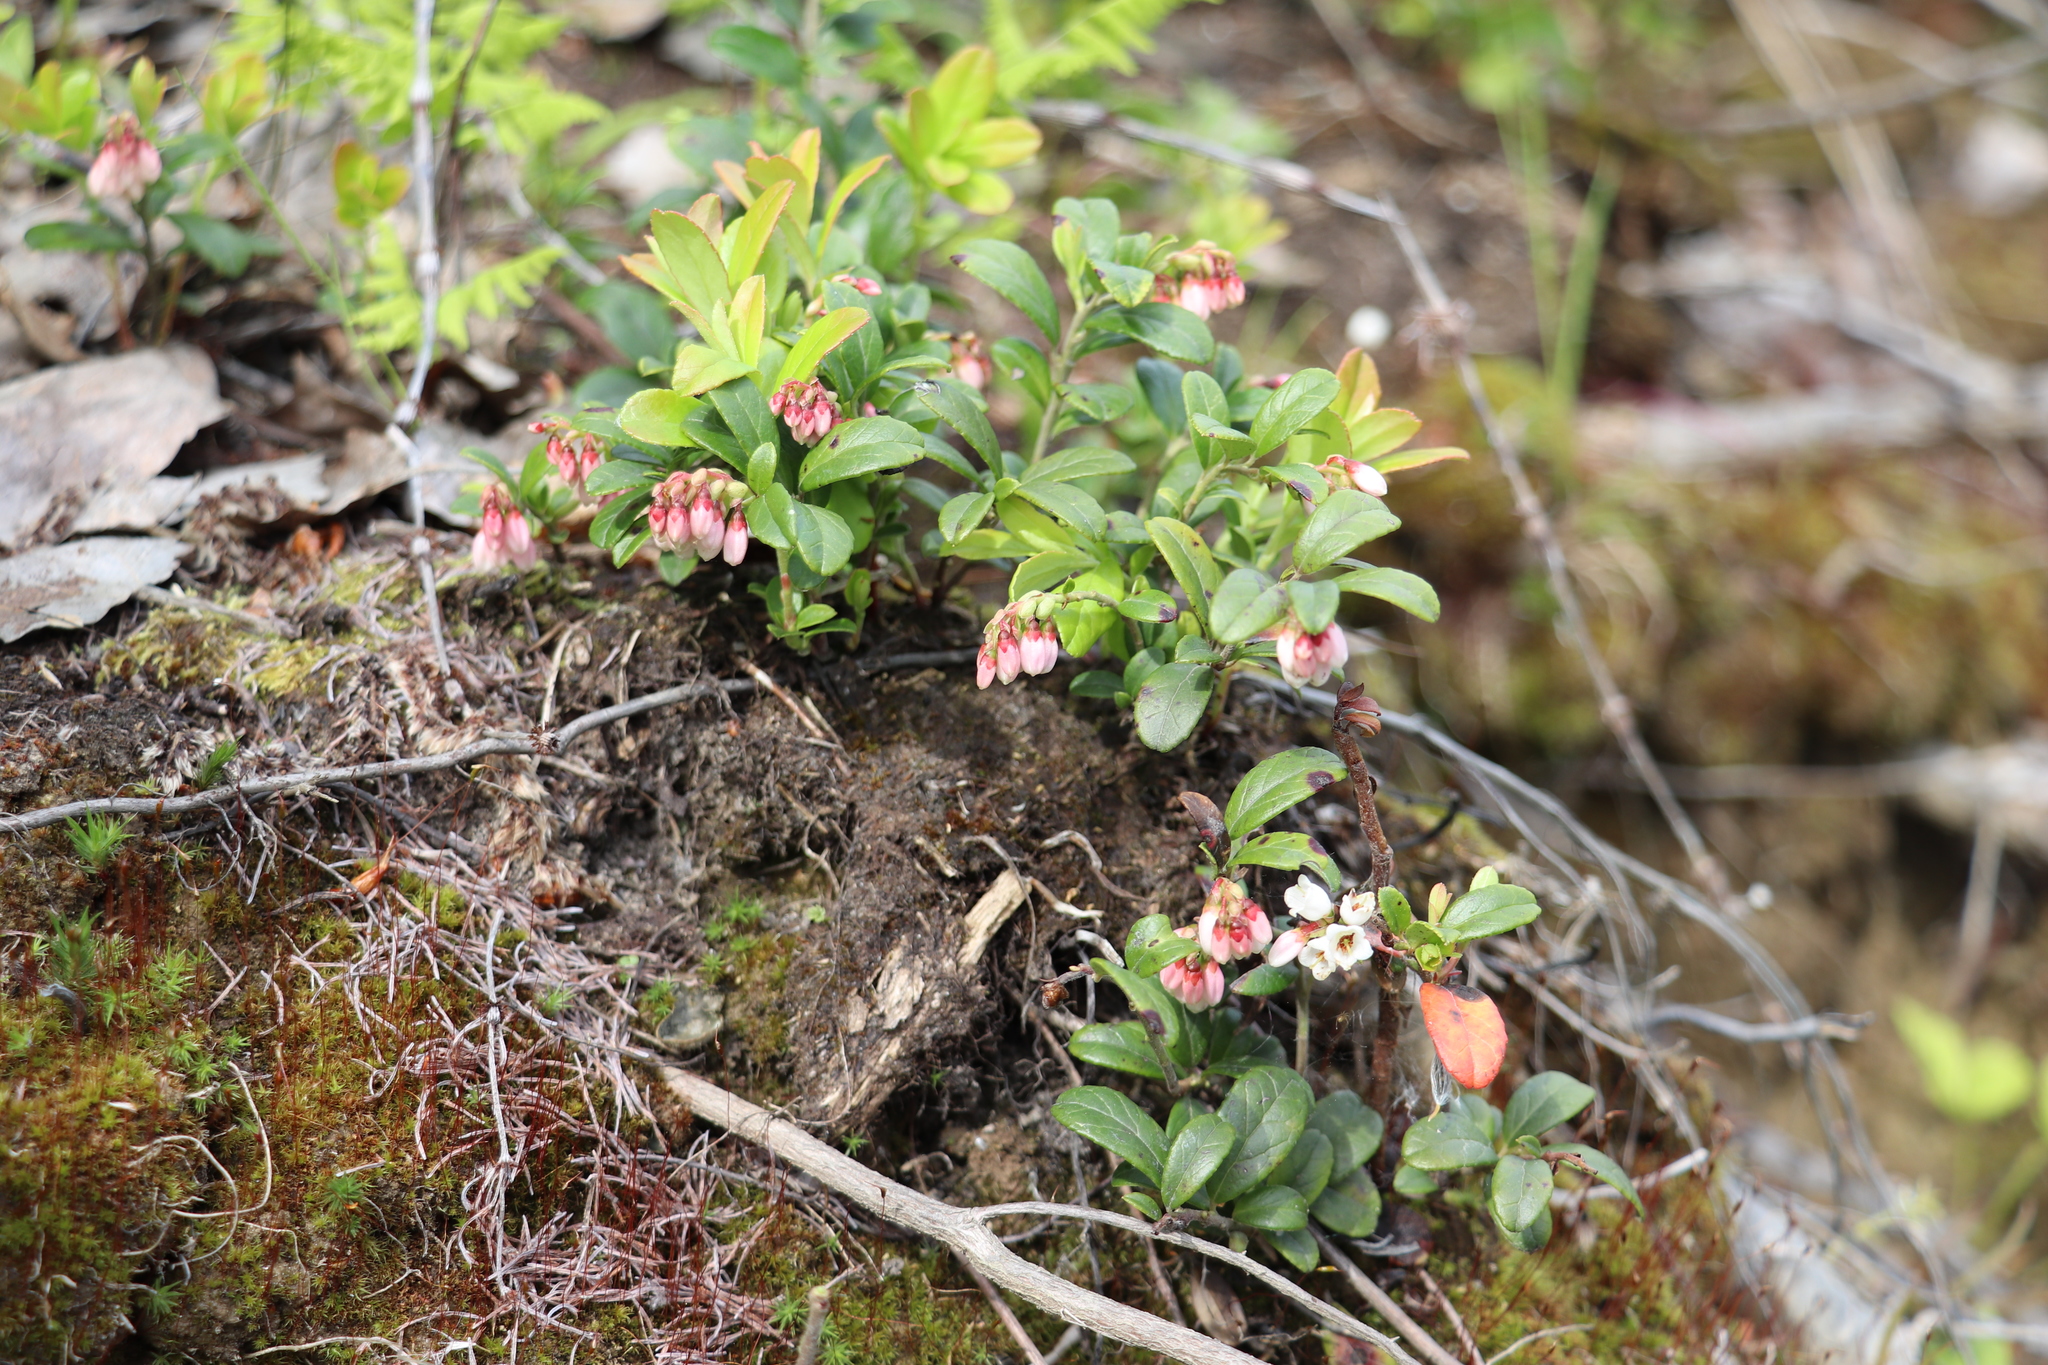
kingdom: Plantae
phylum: Tracheophyta
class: Magnoliopsida
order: Ericales
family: Ericaceae
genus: Vaccinium
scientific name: Vaccinium vitis-idaea
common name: Cowberry
